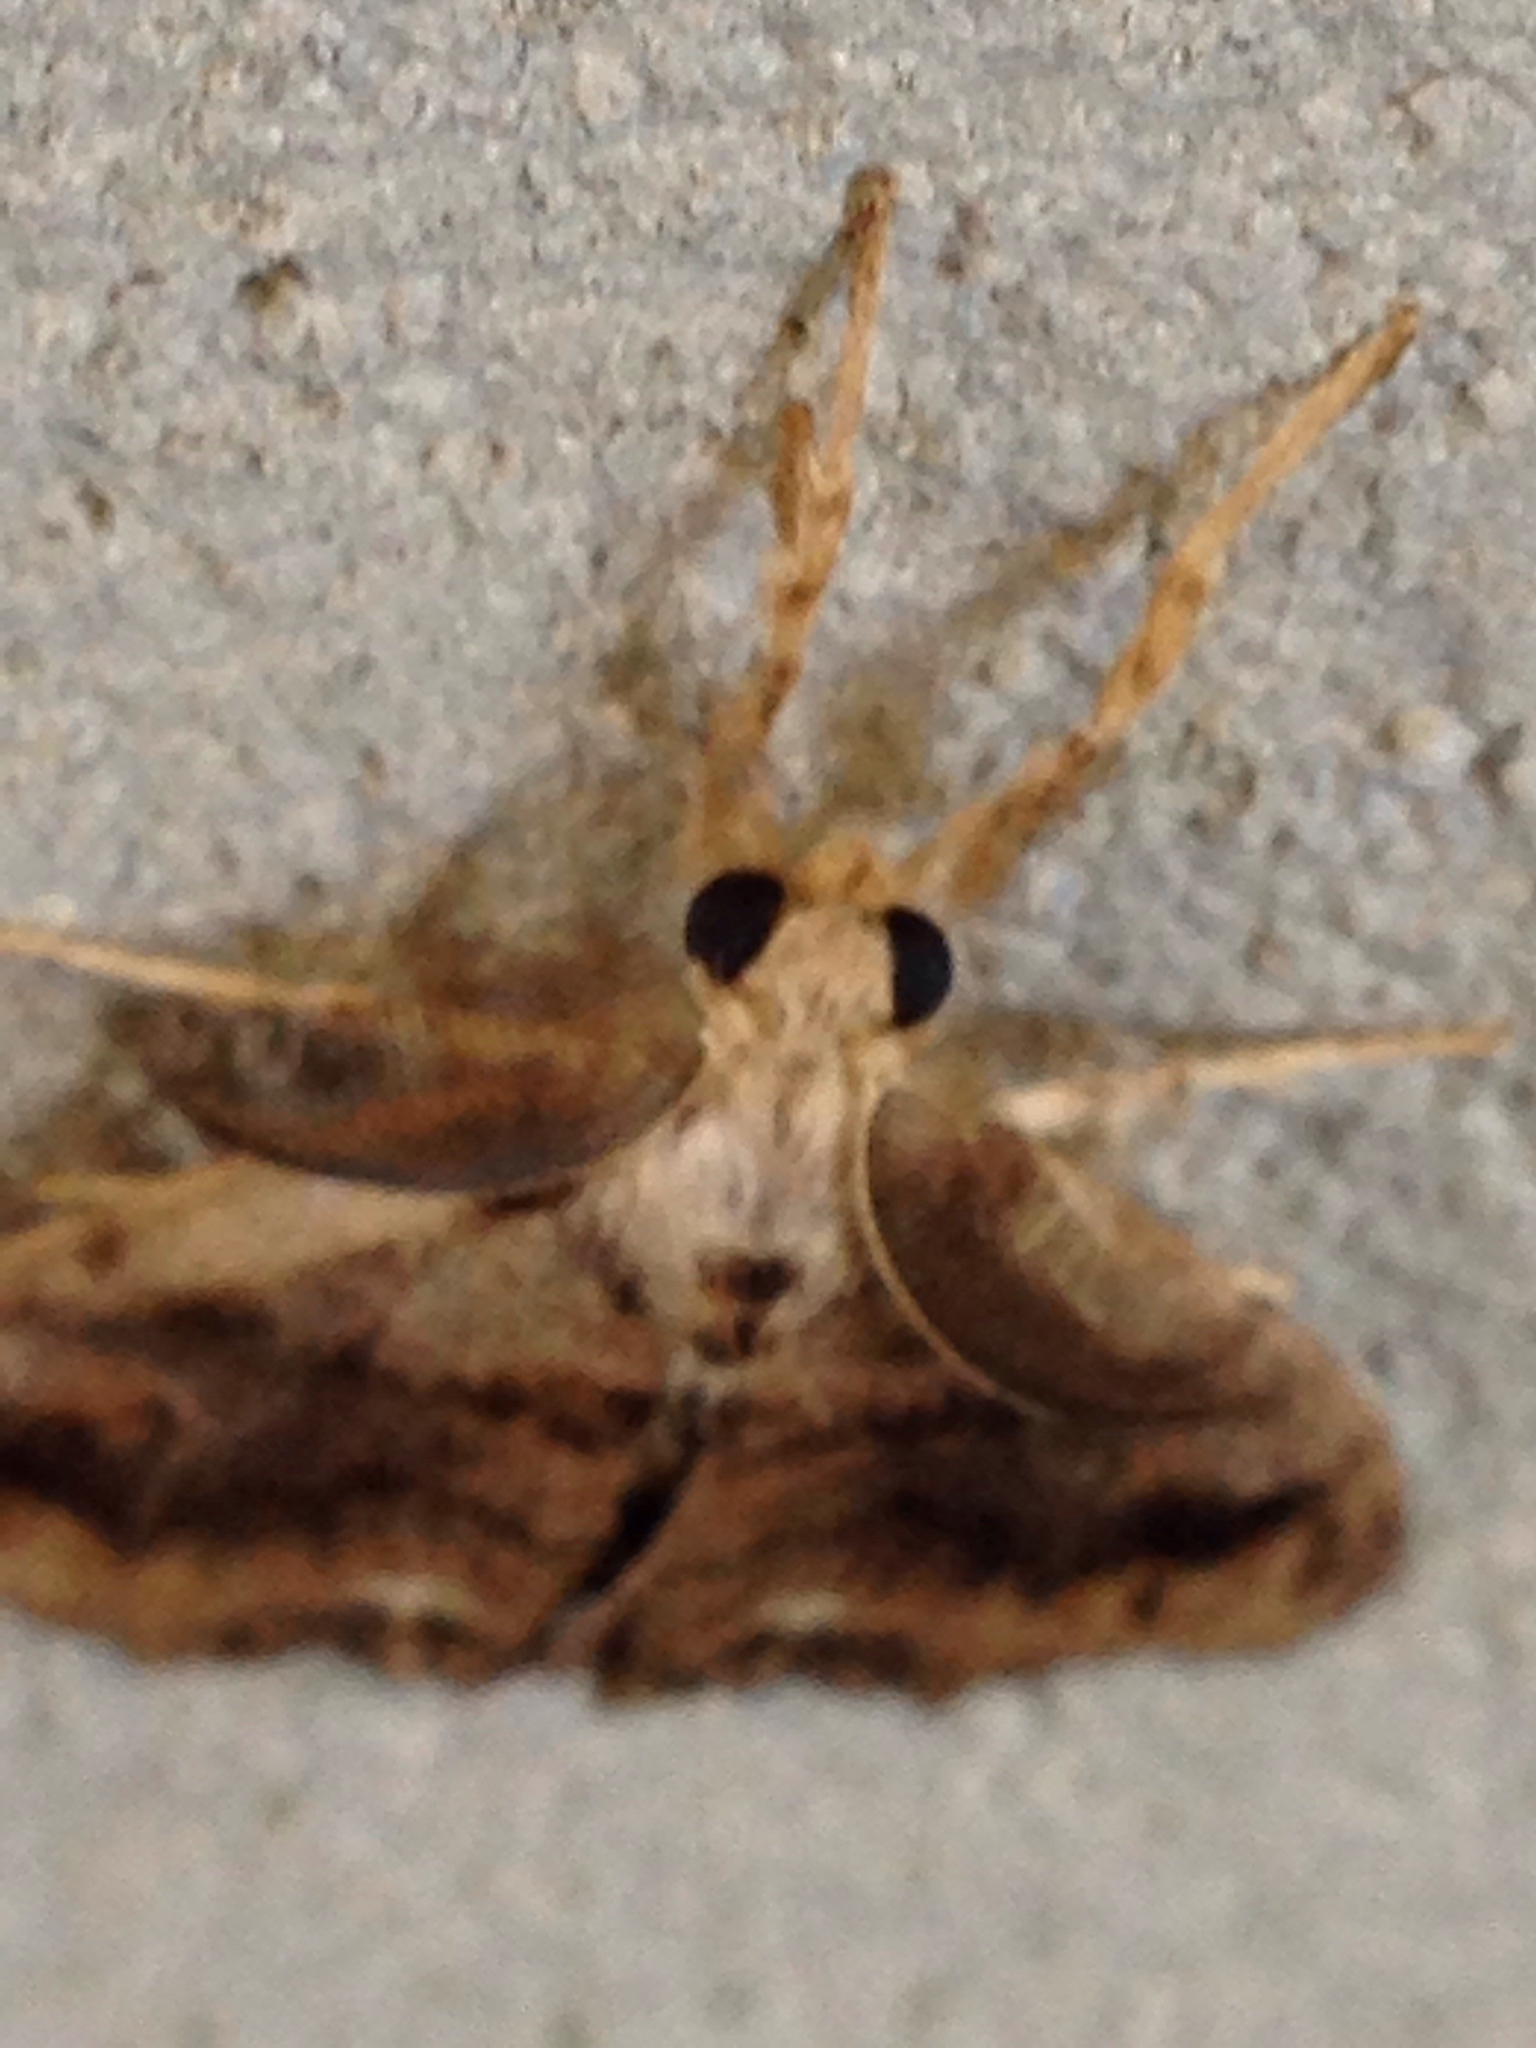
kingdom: Animalia
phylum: Arthropoda
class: Insecta
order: Lepidoptera
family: Erebidae
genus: Orgyia
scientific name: Orgyia definita
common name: Definite tussock moth
